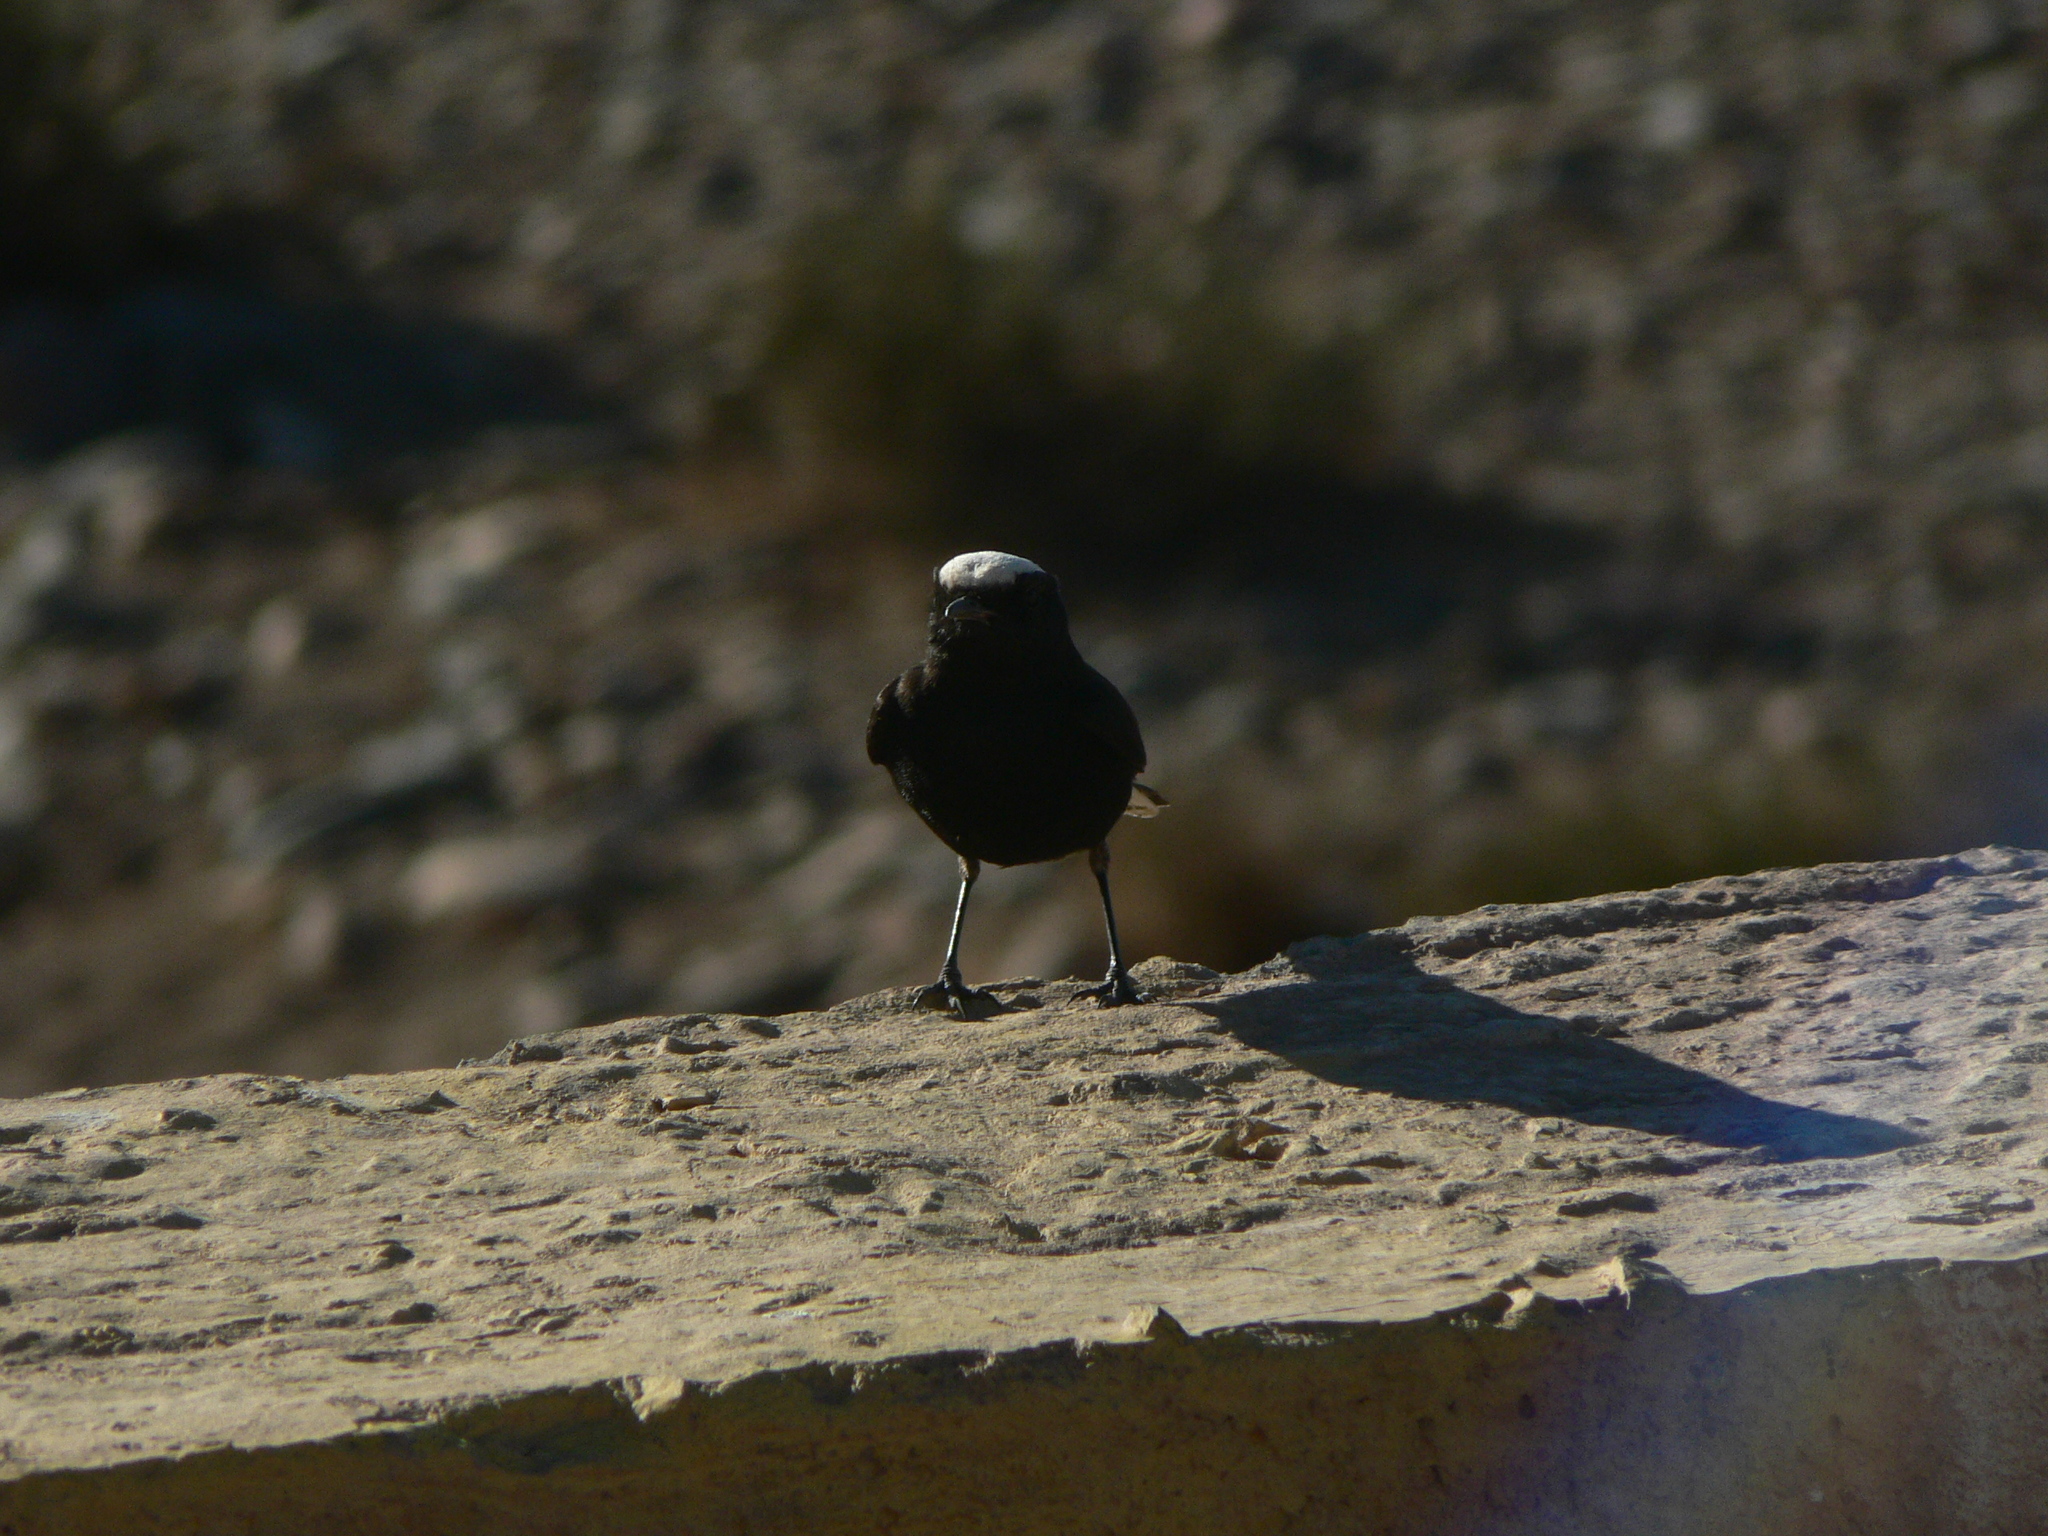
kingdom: Animalia
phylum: Chordata
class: Aves
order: Passeriformes
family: Muscicapidae
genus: Oenanthe
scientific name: Oenanthe leucopyga
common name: White-crowned wheatear
